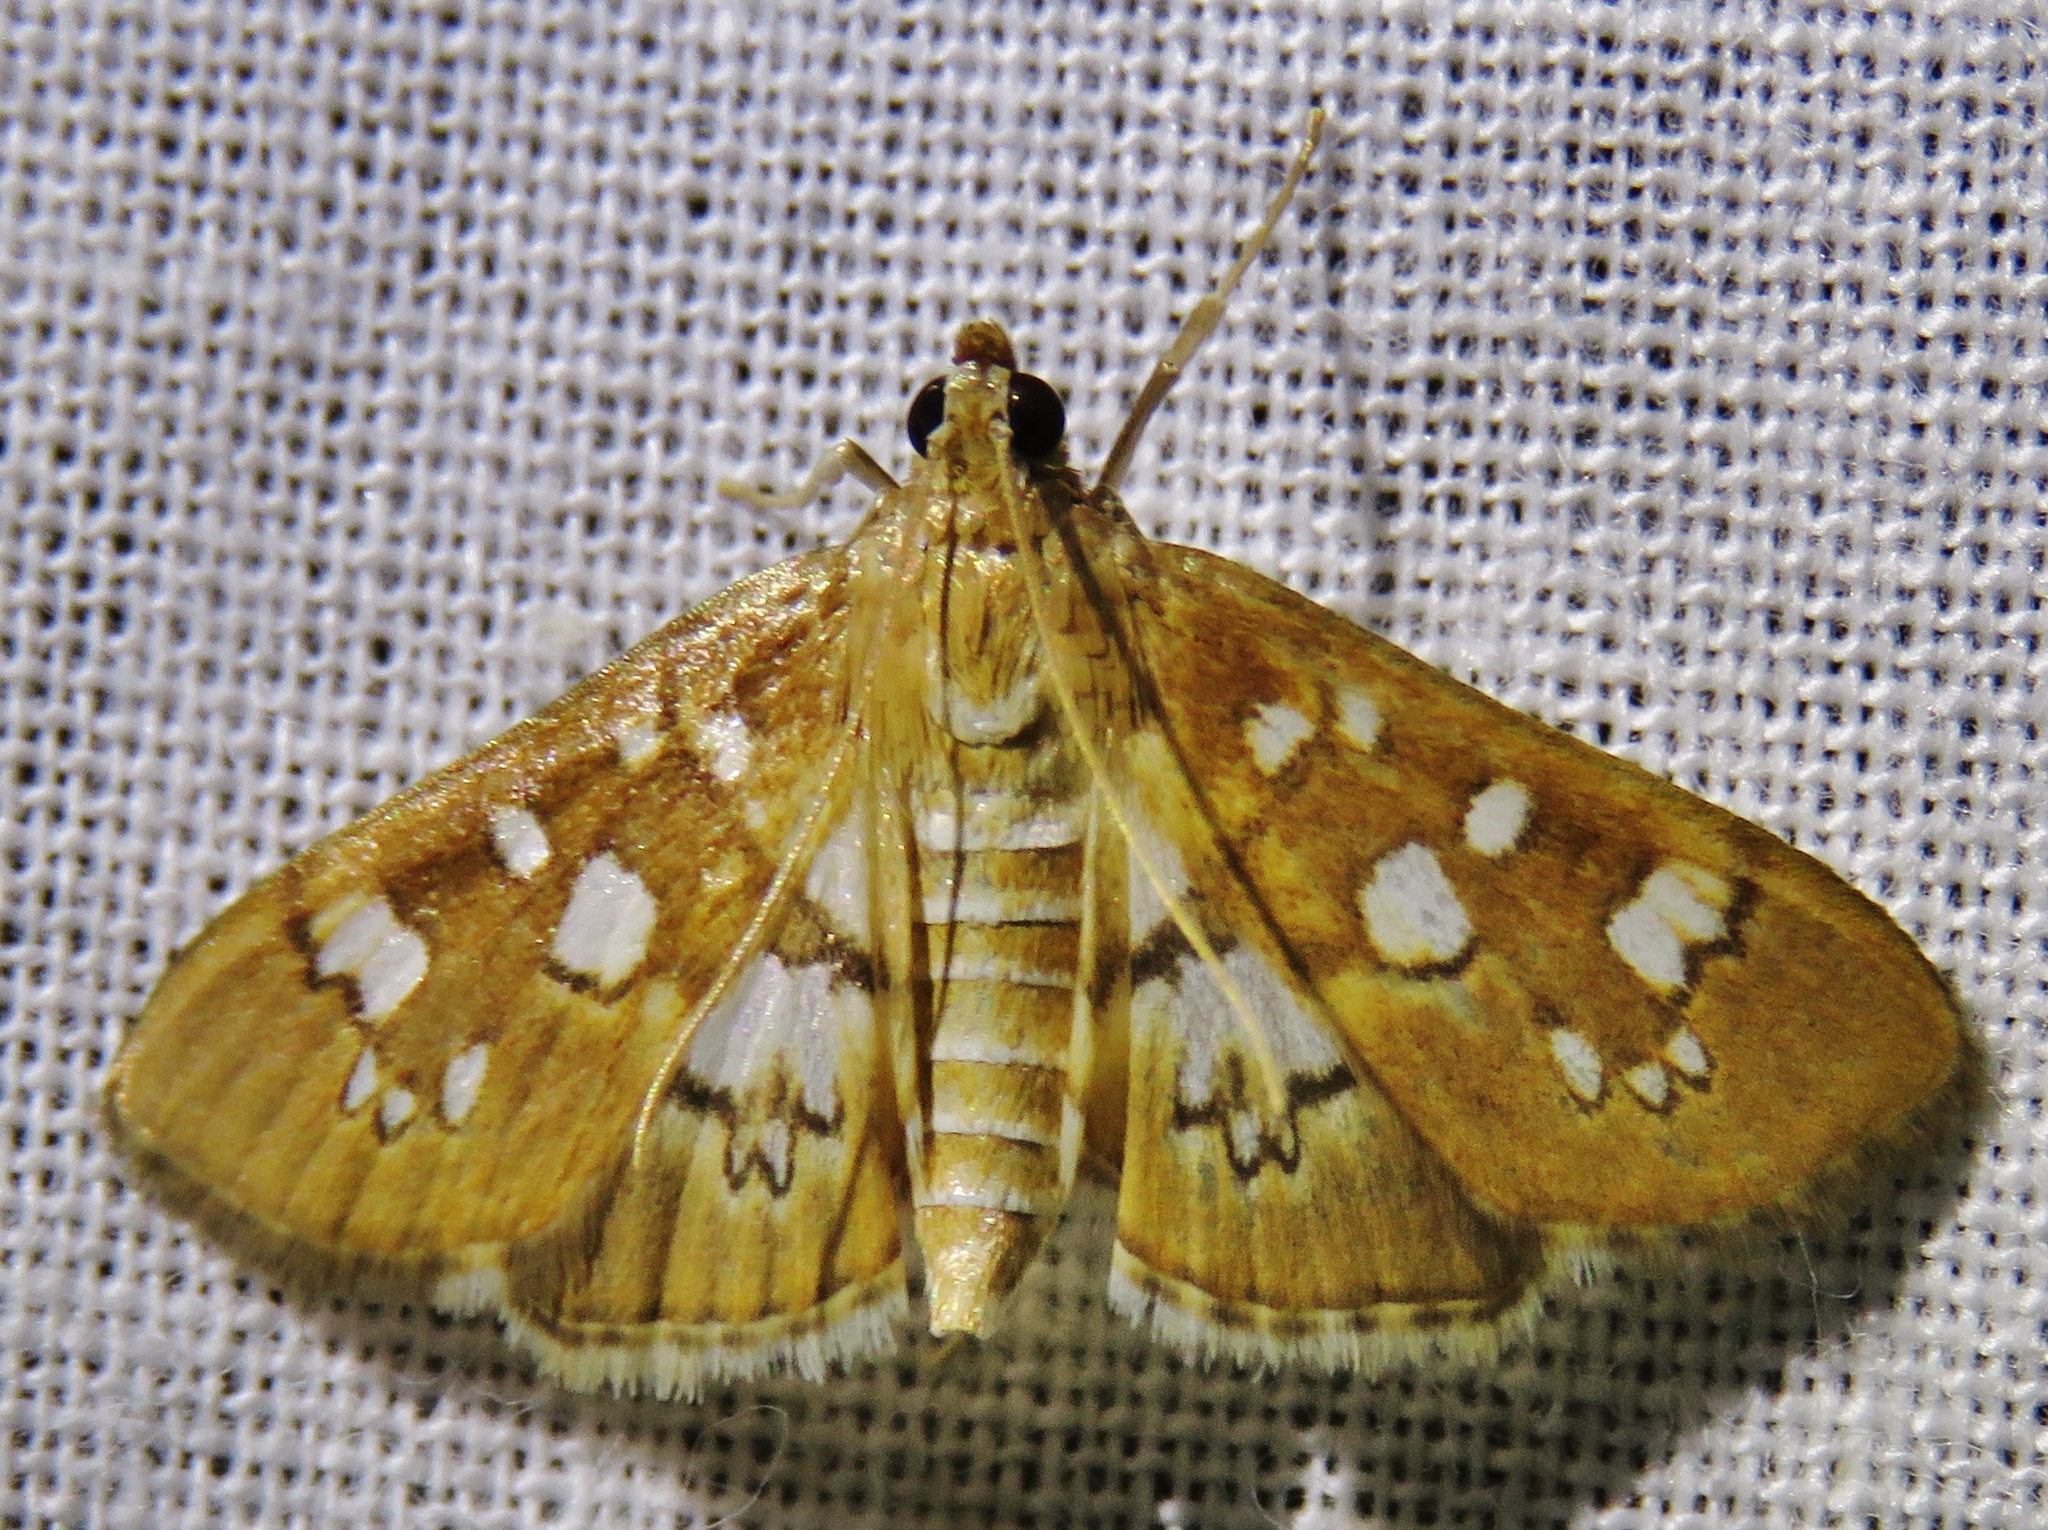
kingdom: Animalia
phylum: Arthropoda
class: Insecta
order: Lepidoptera
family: Crambidae
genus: Samea
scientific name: Samea baccatalis
